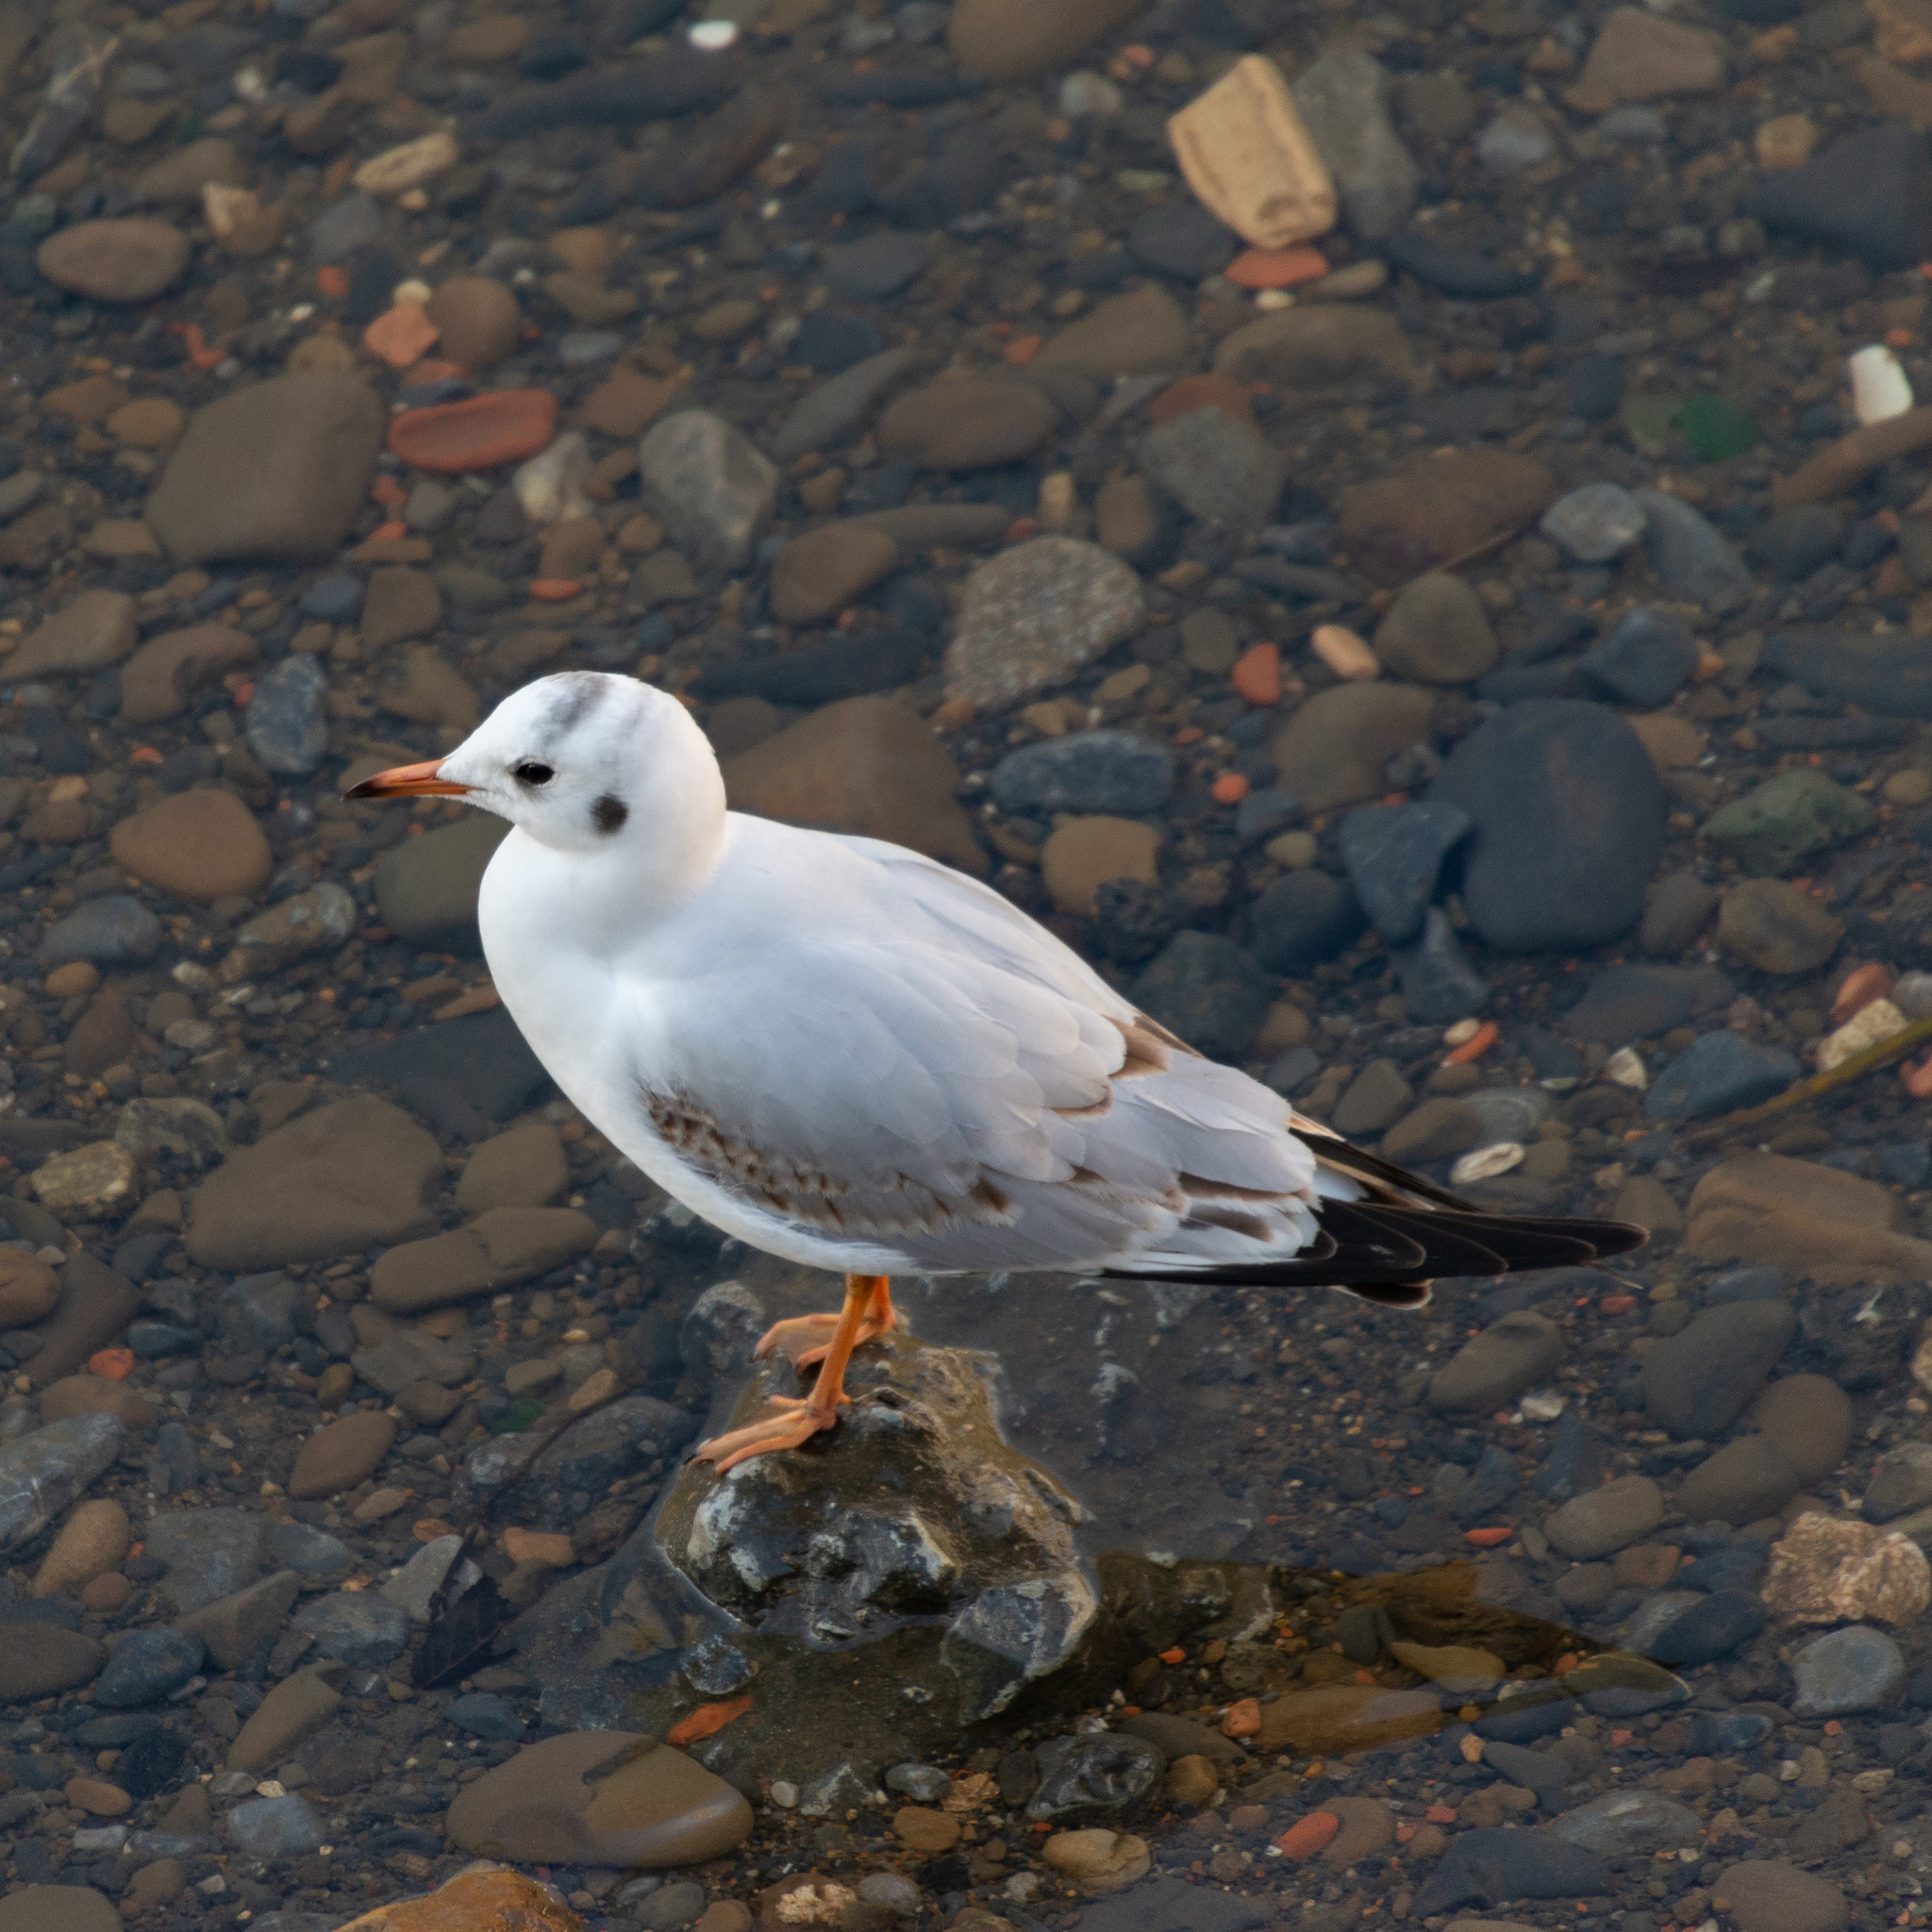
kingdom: Animalia
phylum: Chordata
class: Aves
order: Charadriiformes
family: Laridae
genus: Chroicocephalus
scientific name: Chroicocephalus ridibundus
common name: Black-headed gull
